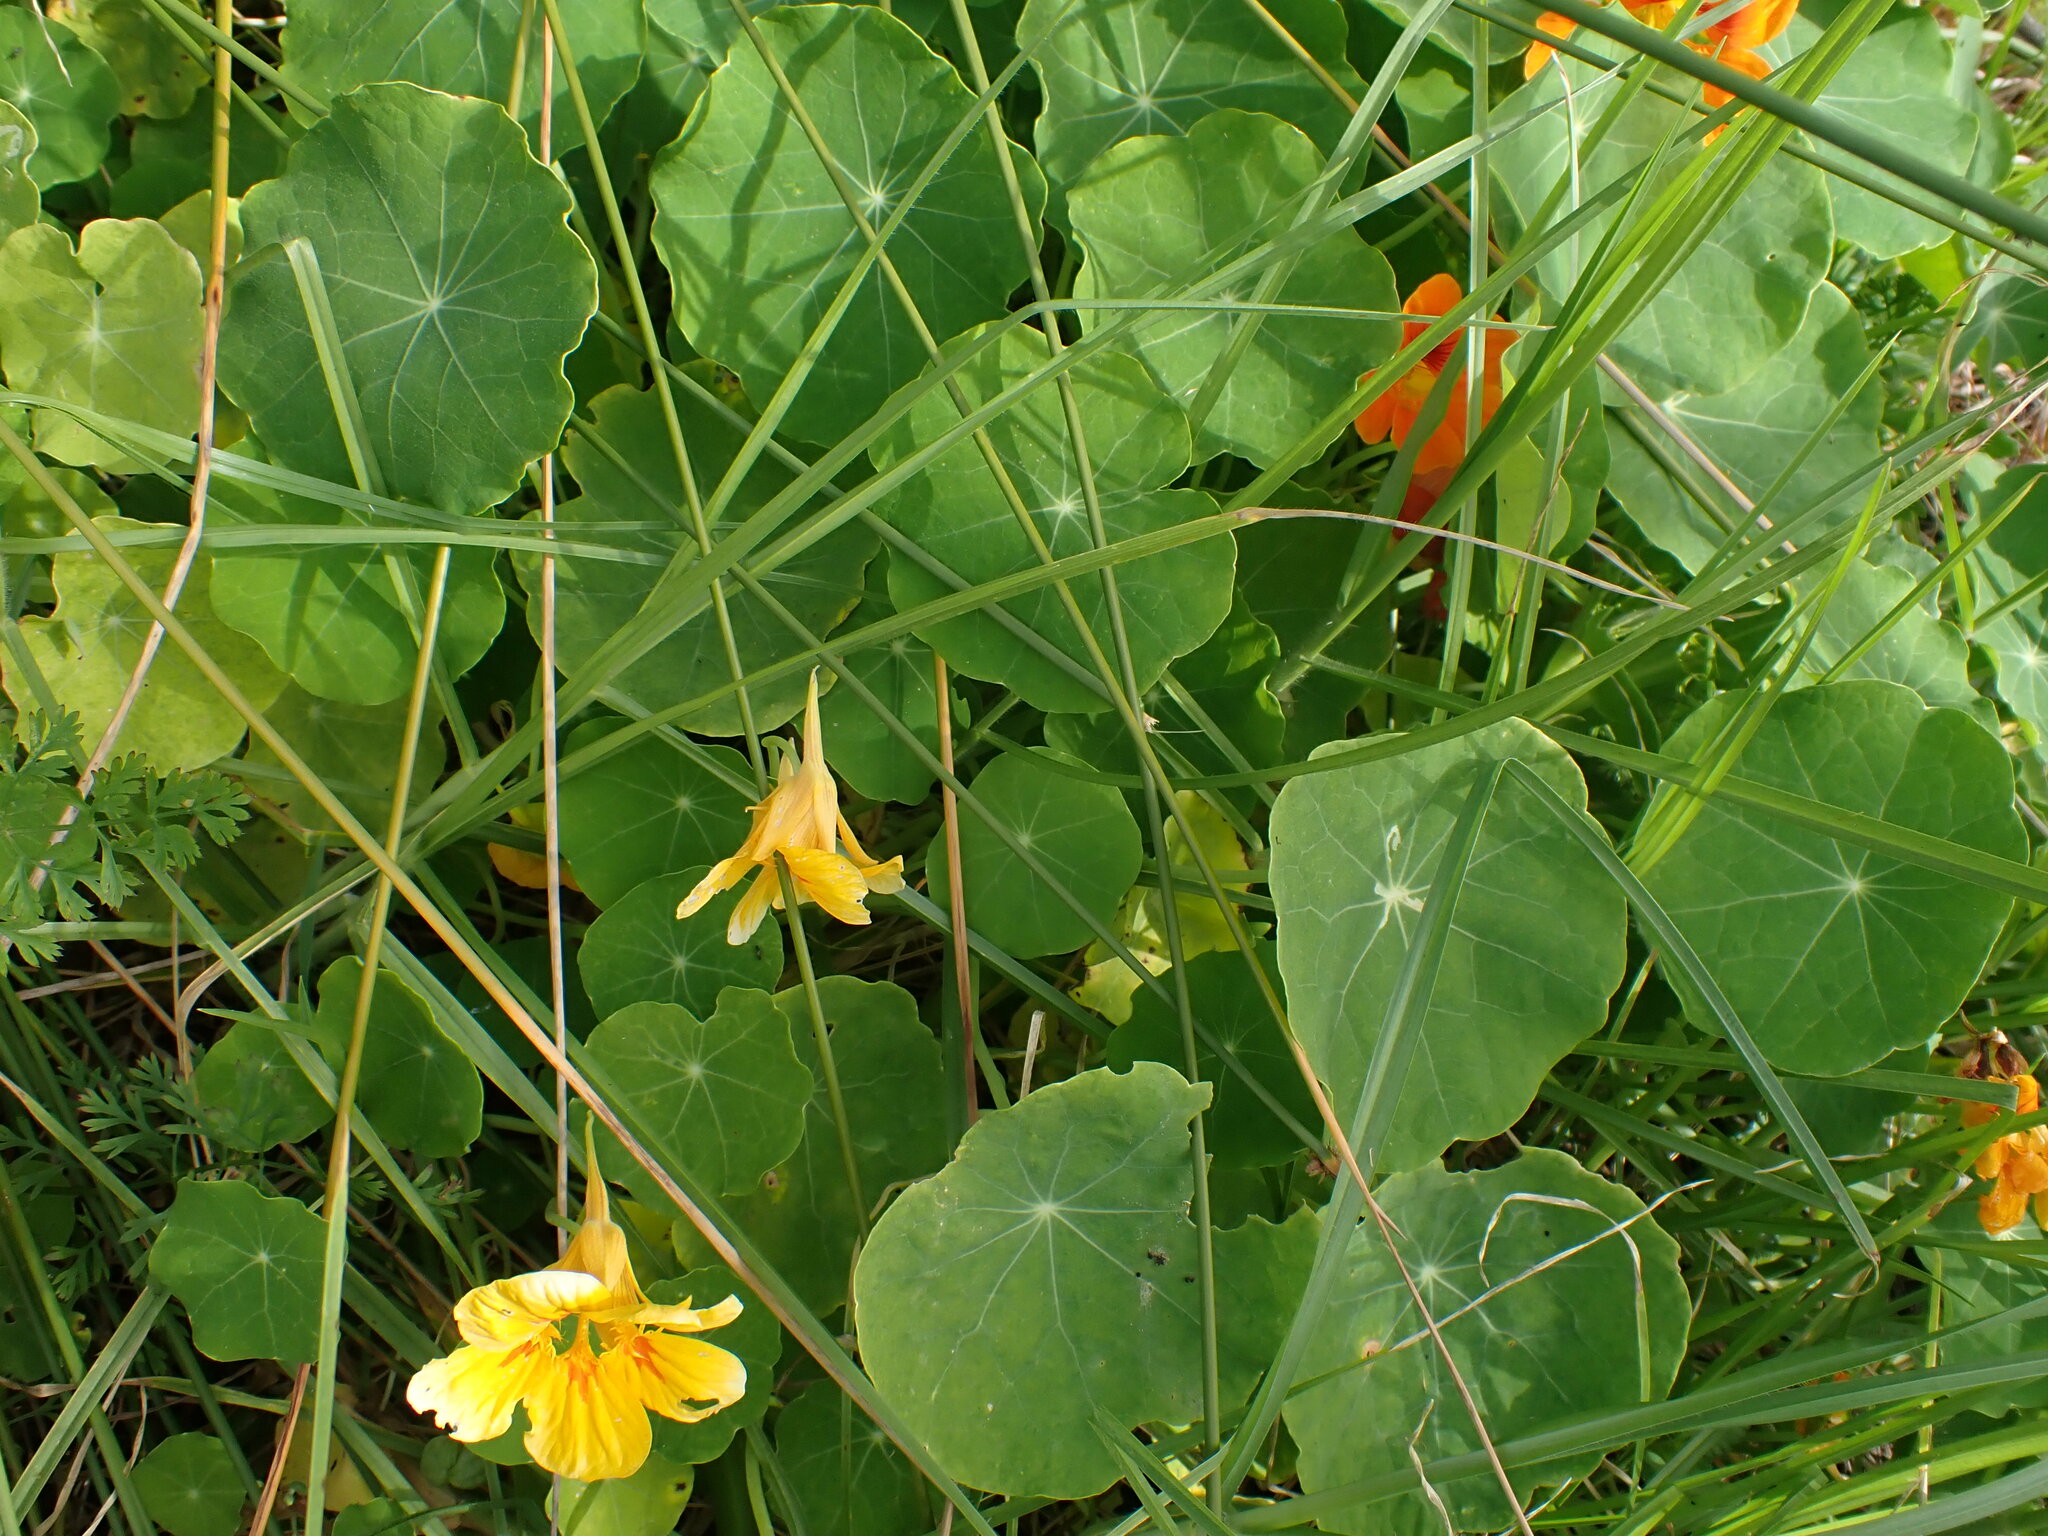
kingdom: Plantae
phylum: Tracheophyta
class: Magnoliopsida
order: Brassicales
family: Tropaeolaceae
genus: Tropaeolum
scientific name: Tropaeolum majus
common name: Nasturtium
